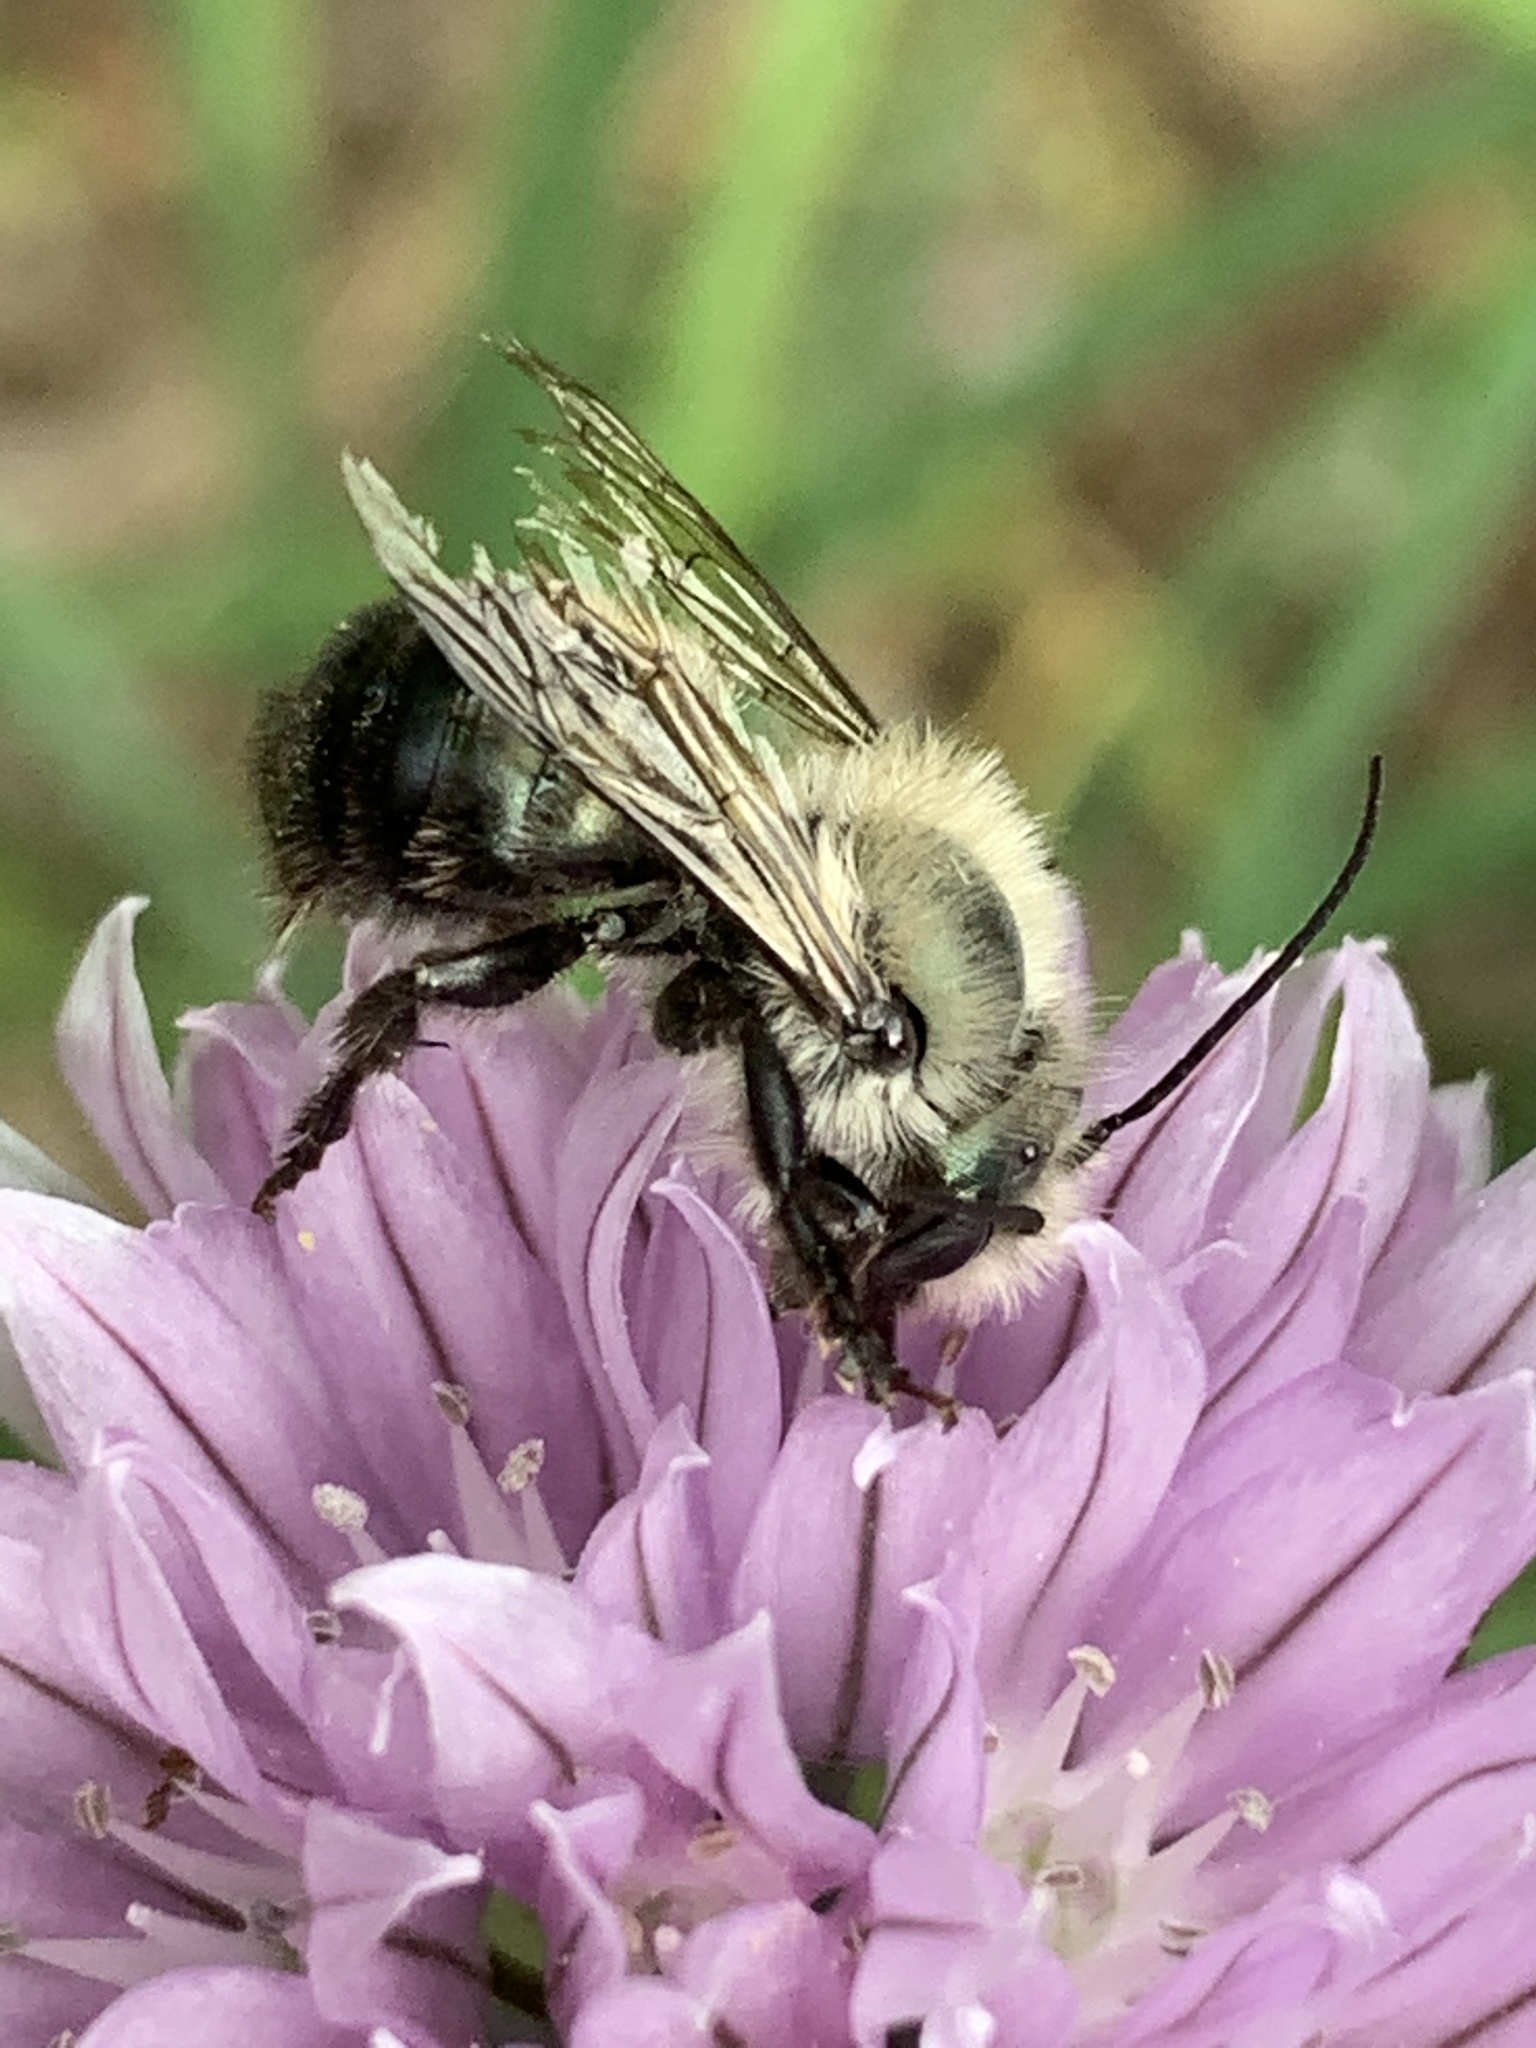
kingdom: Animalia
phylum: Arthropoda
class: Insecta
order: Hymenoptera
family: Megachilidae
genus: Osmia
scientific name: Osmia bucephala
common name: Bufflehead mason bee
